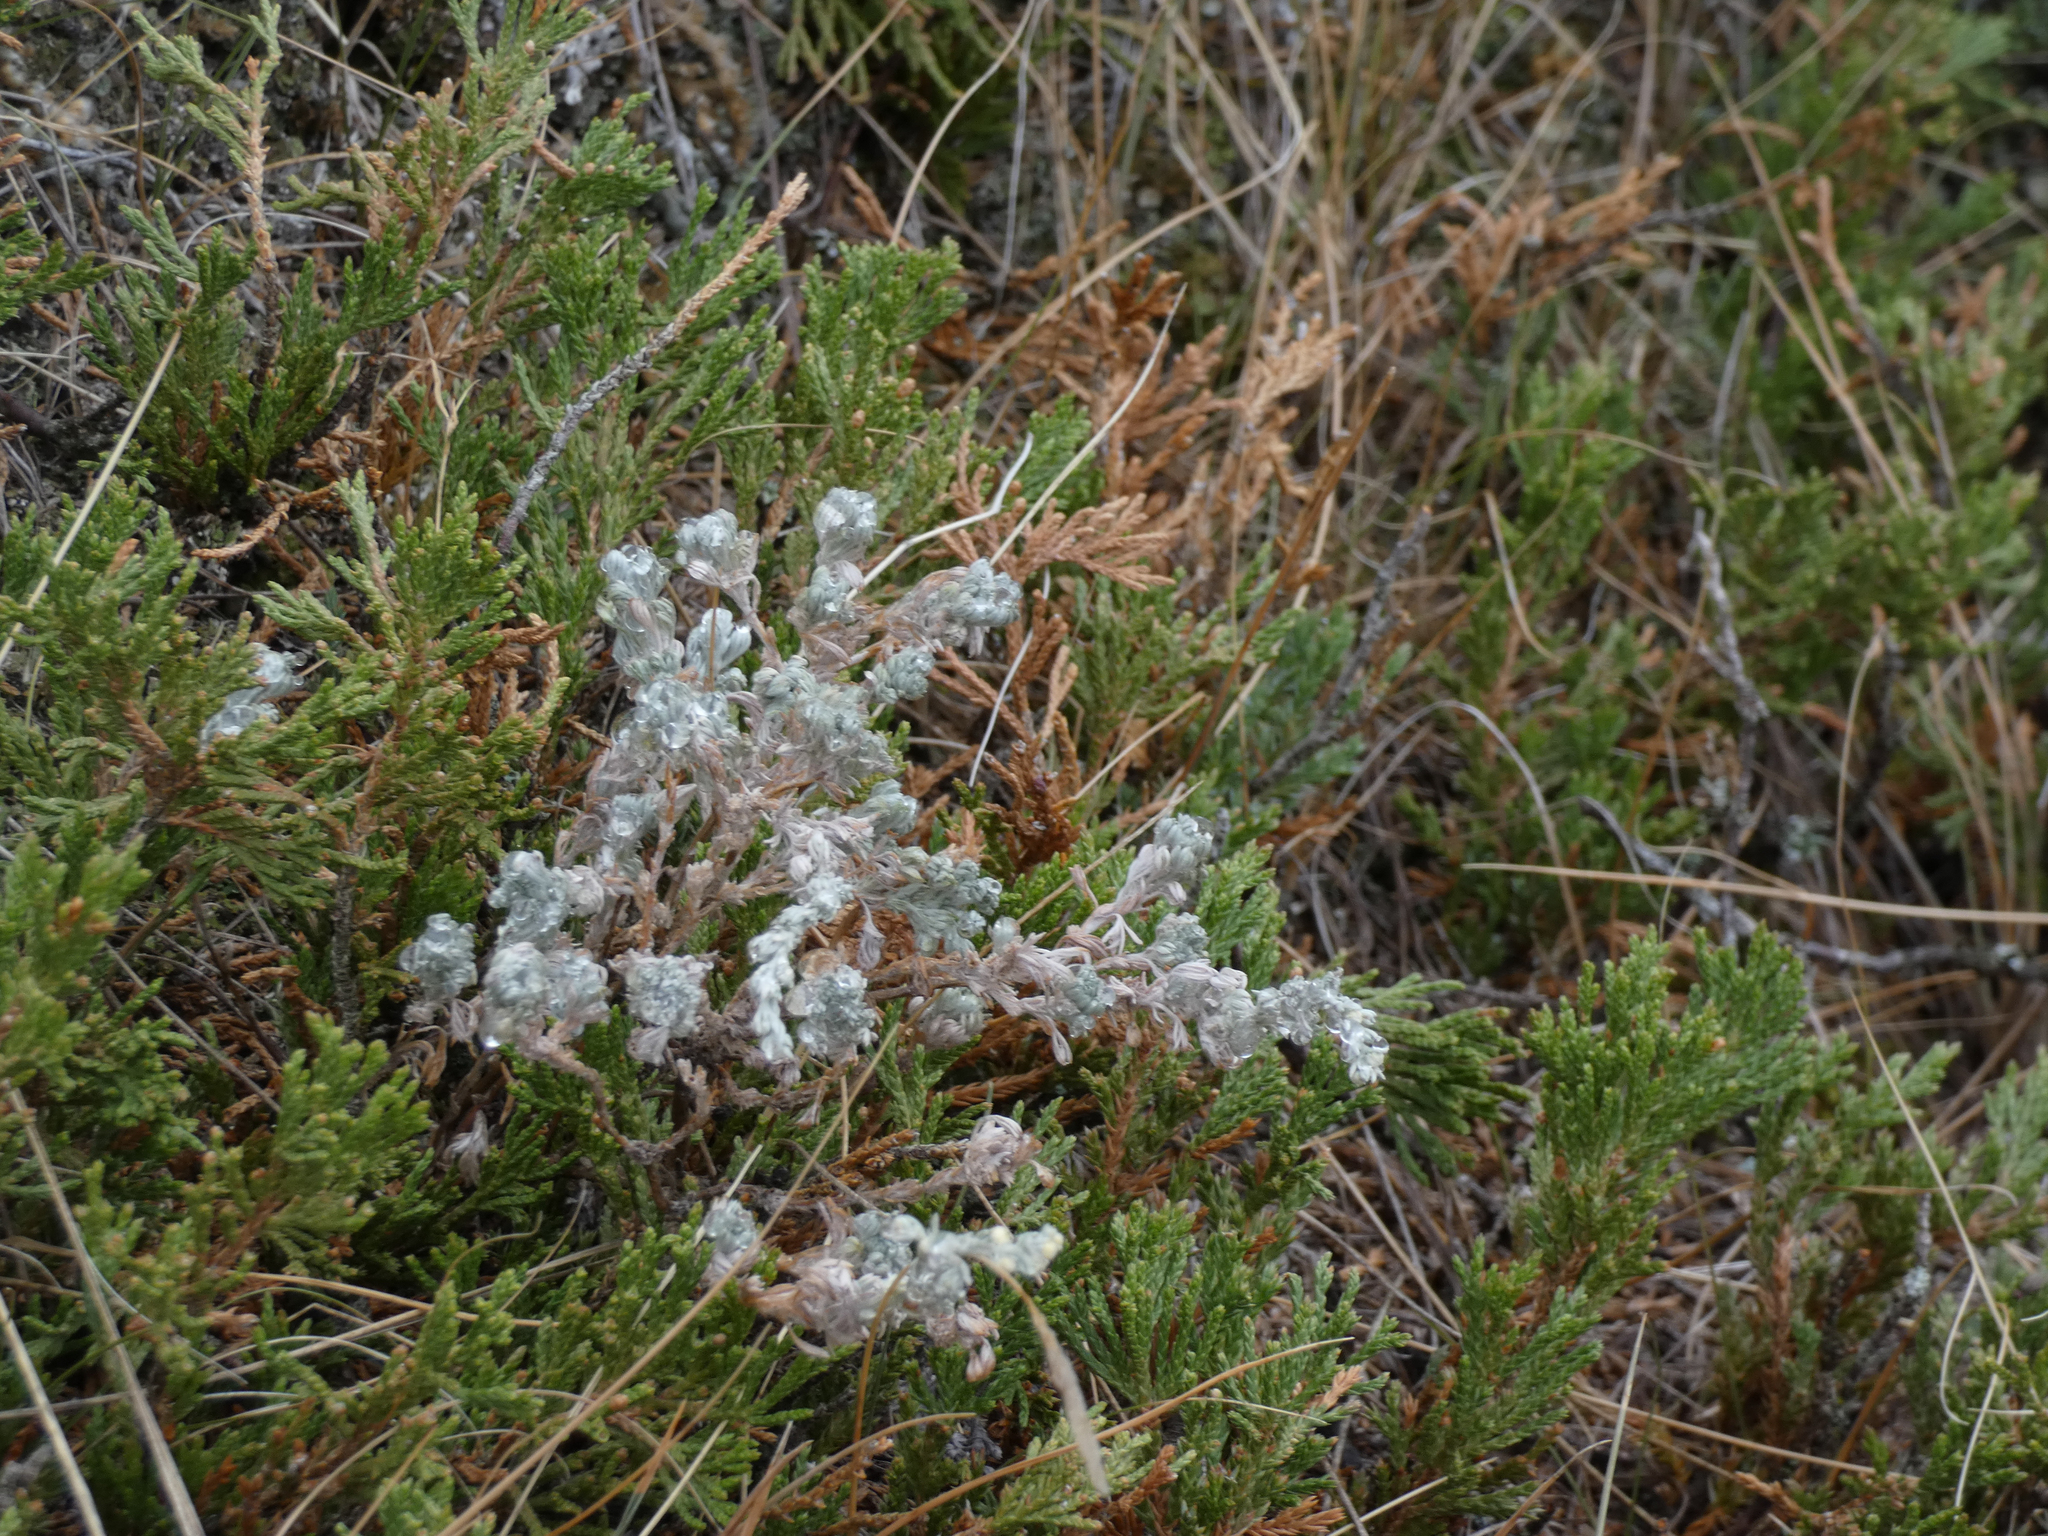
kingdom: Plantae
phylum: Tracheophyta
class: Magnoliopsida
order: Asterales
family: Asteraceae
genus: Artemisia
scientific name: Artemisia frigida
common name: Prairie sagewort
